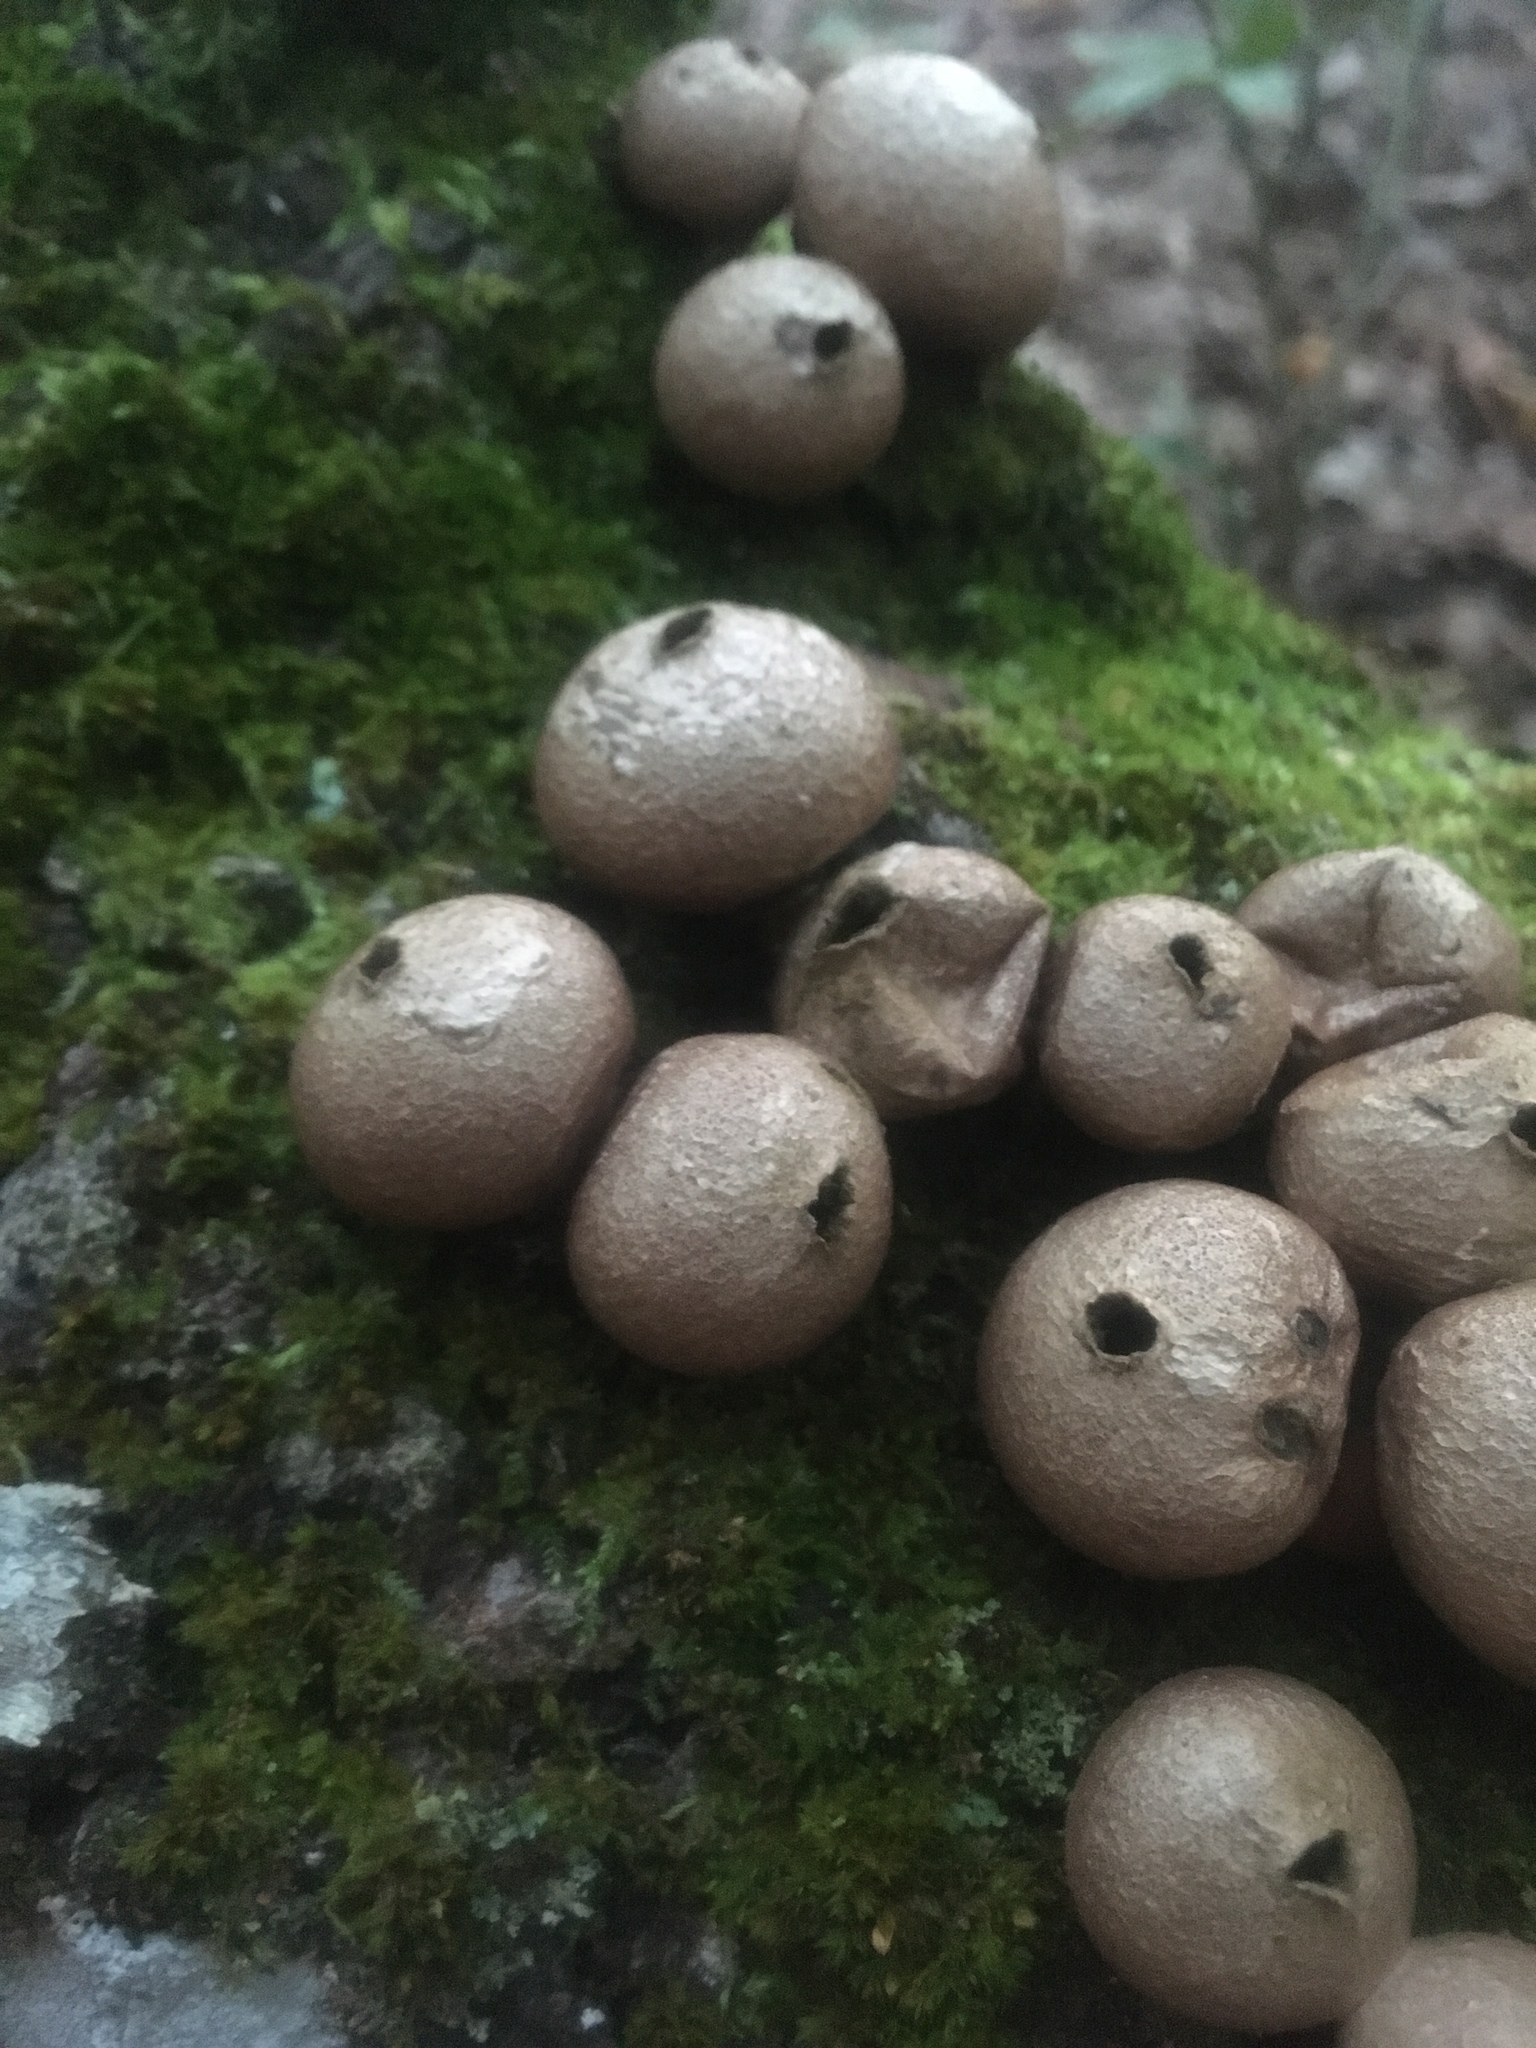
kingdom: Fungi
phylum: Basidiomycota
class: Agaricomycetes
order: Agaricales
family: Lycoperdaceae
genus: Apioperdon
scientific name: Apioperdon pyriforme
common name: Pear-shaped puffball
